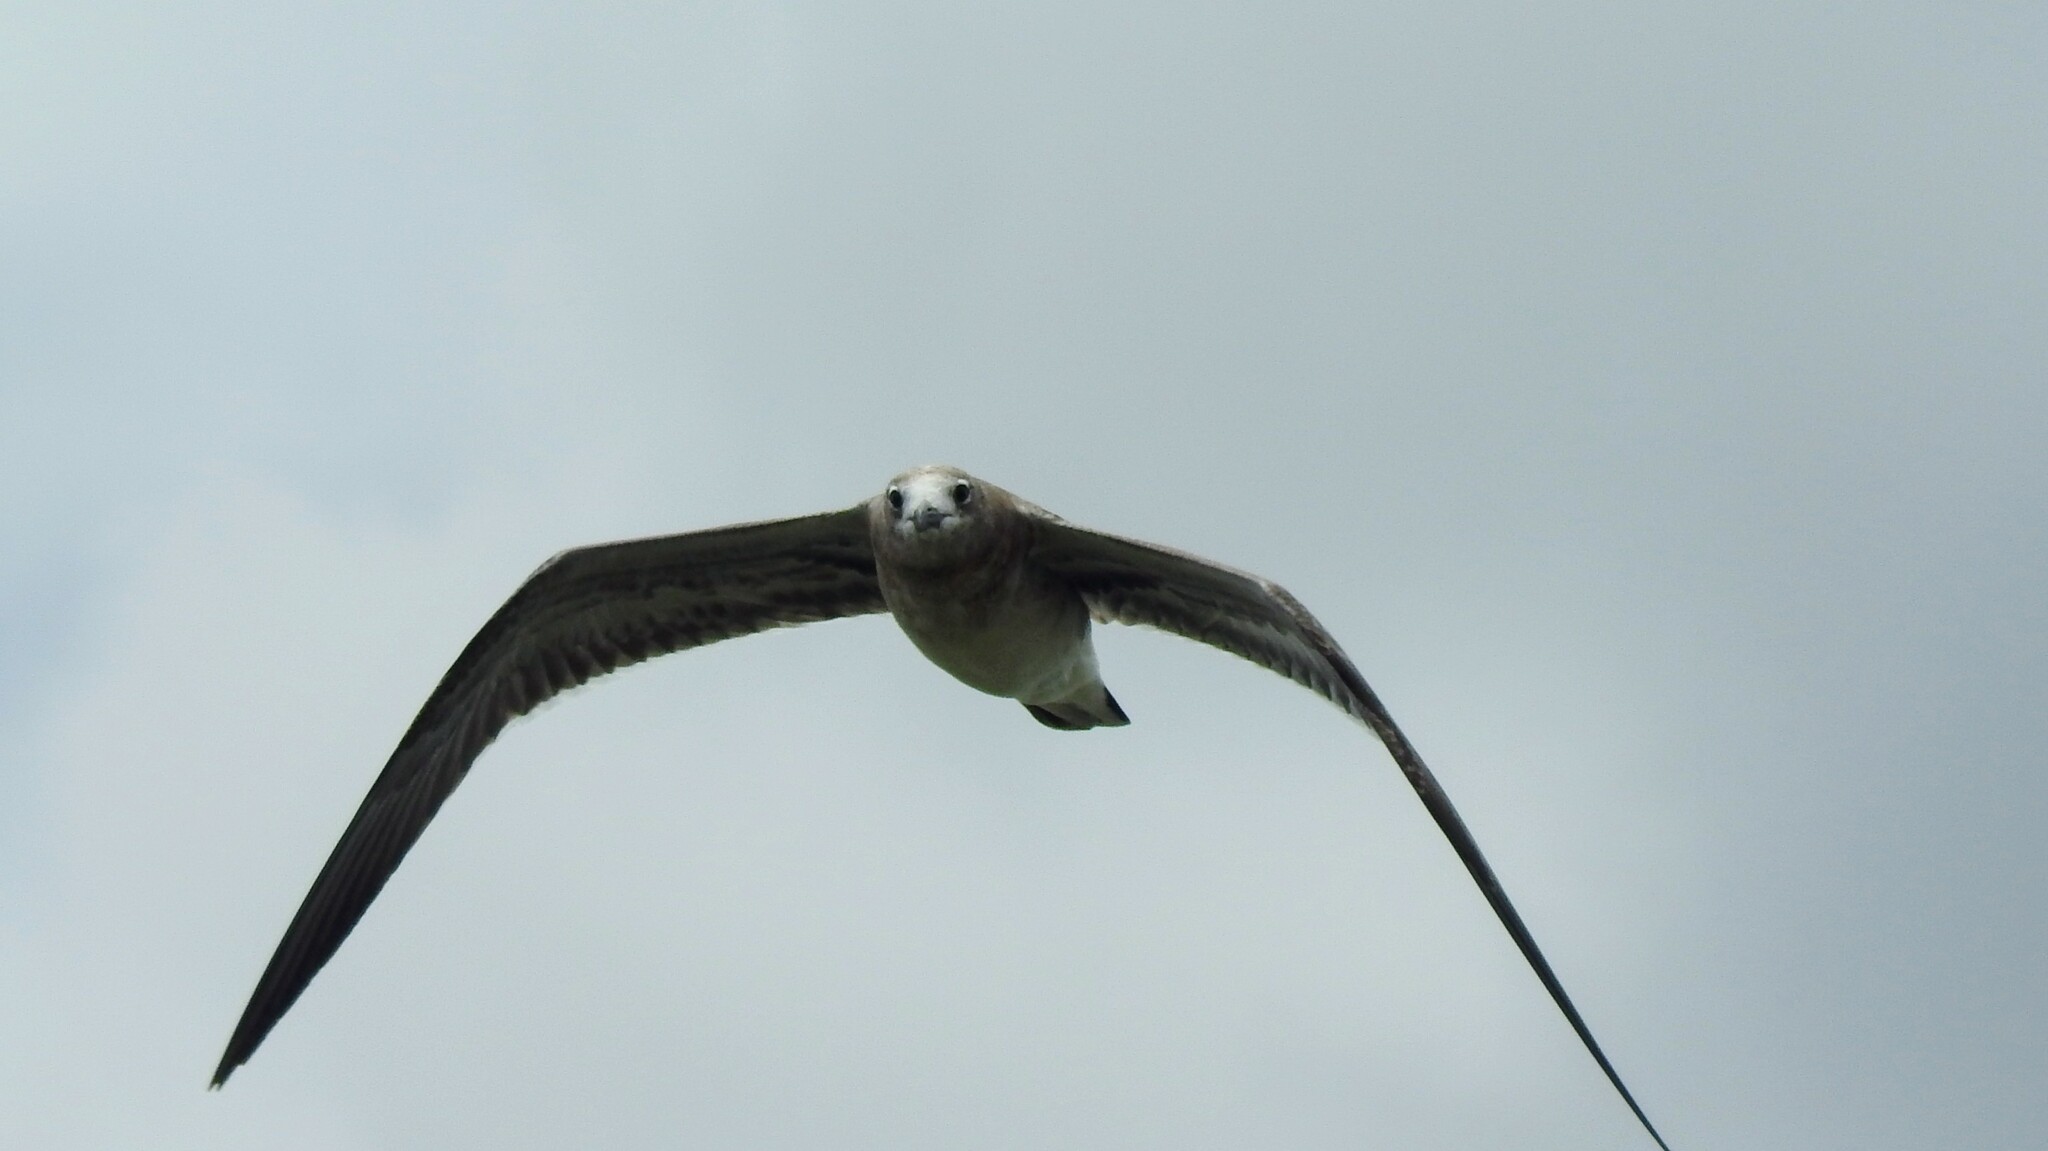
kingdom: Animalia
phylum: Chordata
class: Aves
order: Charadriiformes
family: Laridae
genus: Leucophaeus
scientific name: Leucophaeus atricilla
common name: Laughing gull
